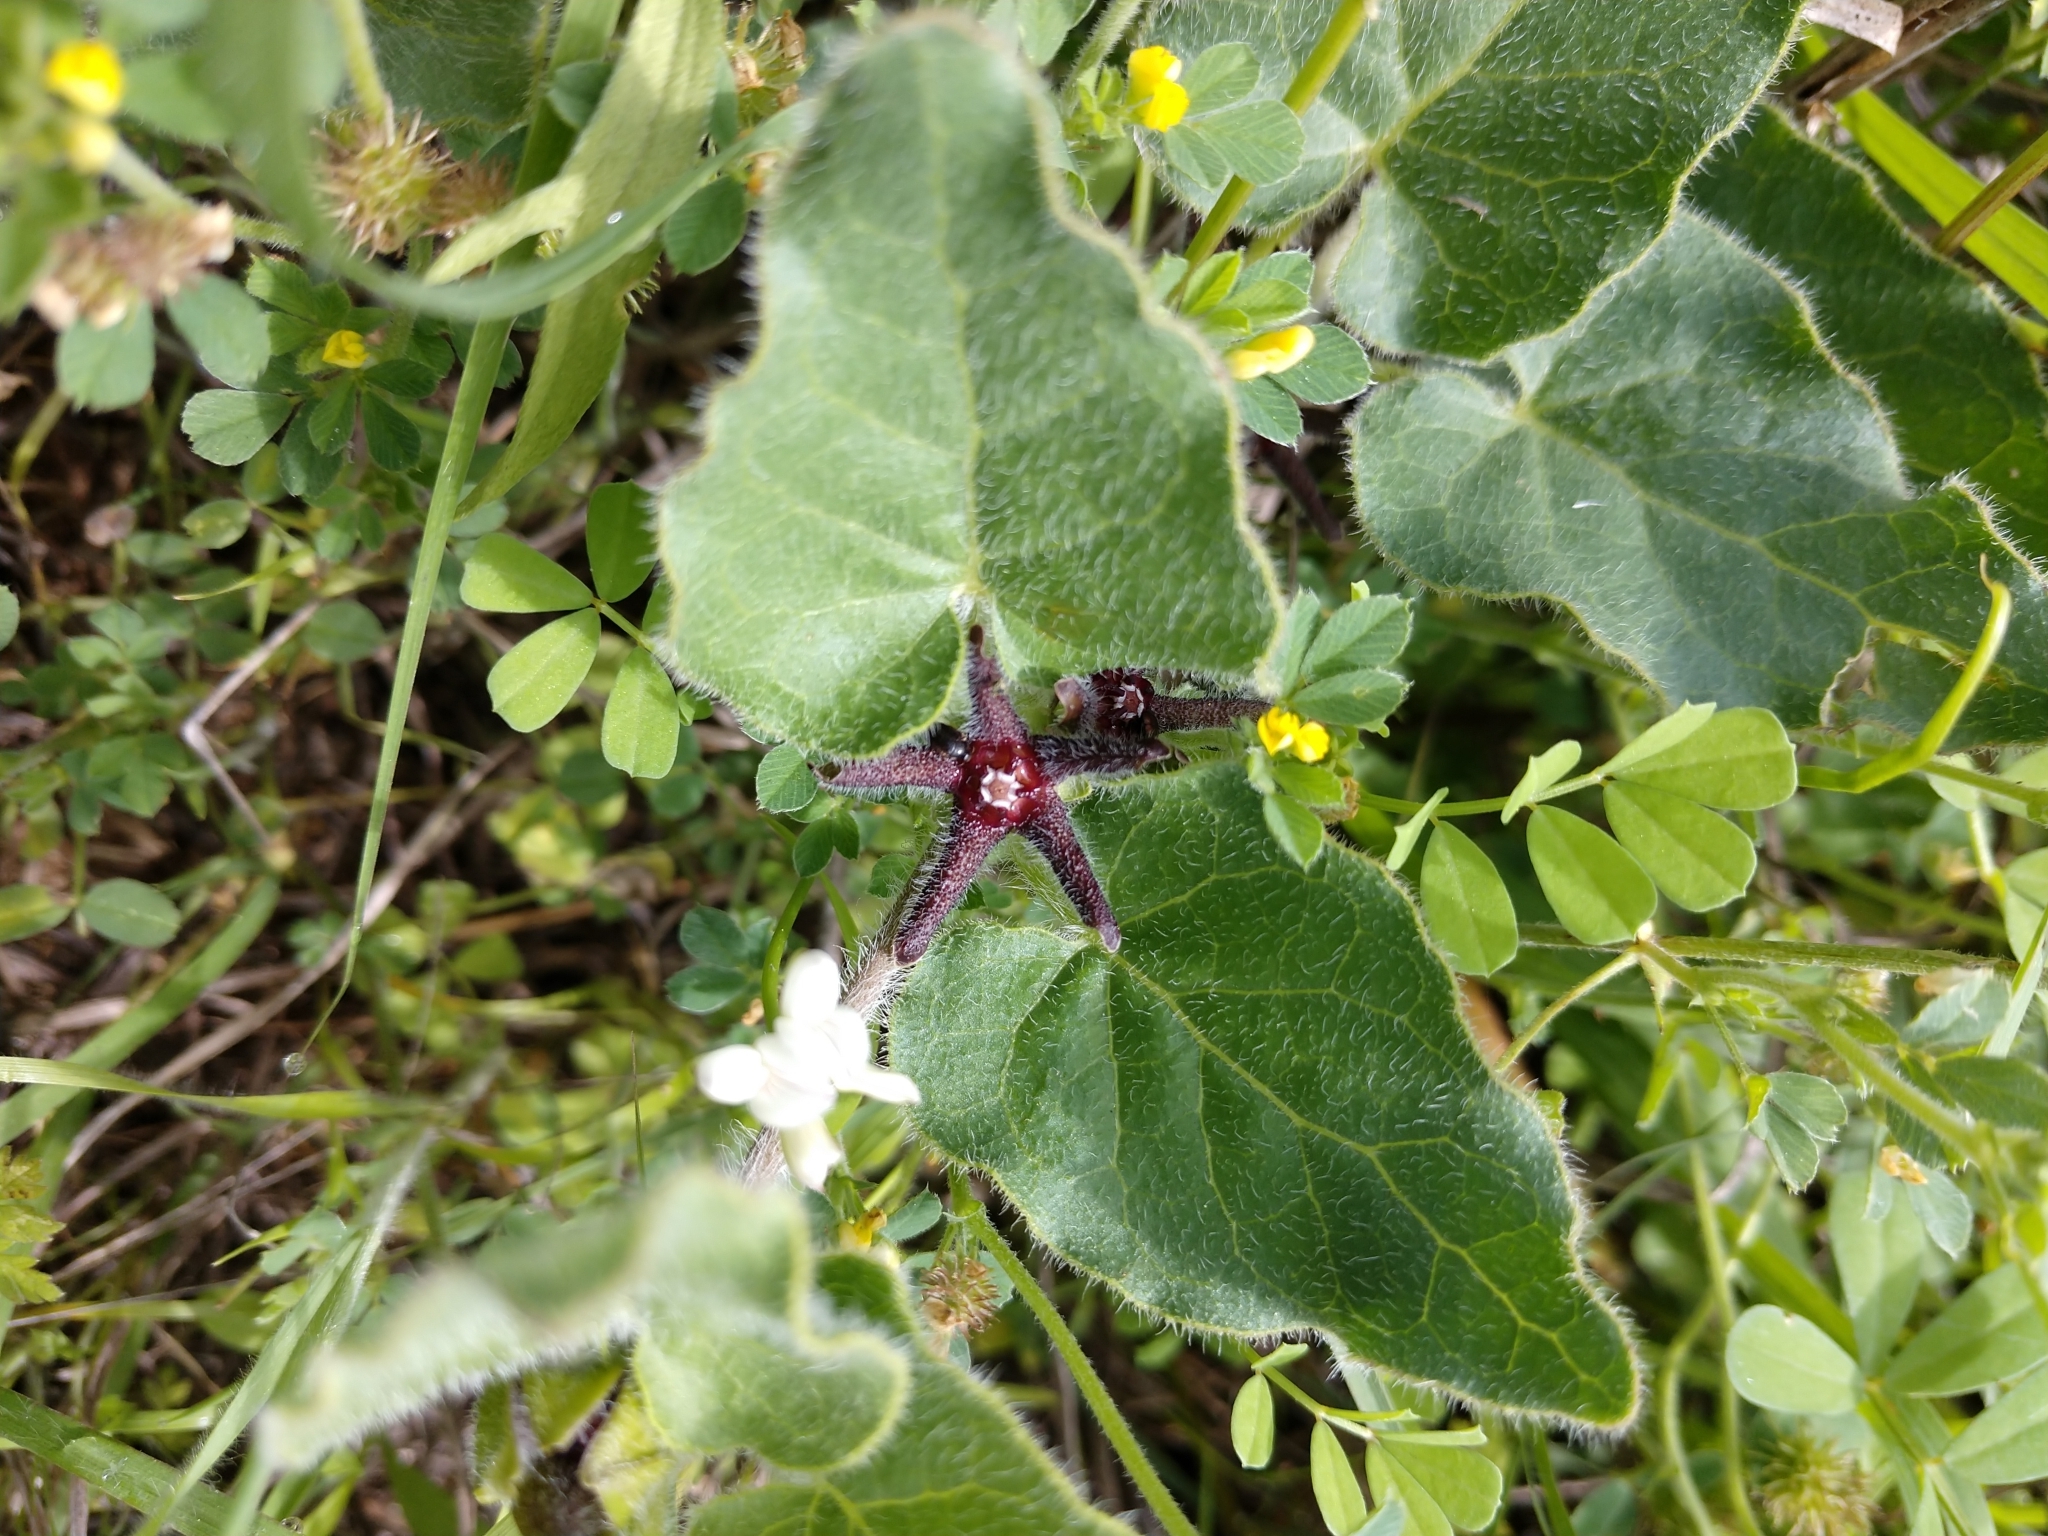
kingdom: Plantae
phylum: Tracheophyta
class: Magnoliopsida
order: Gentianales
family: Apocynaceae
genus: Chthamalia
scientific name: Chthamalia biflora
